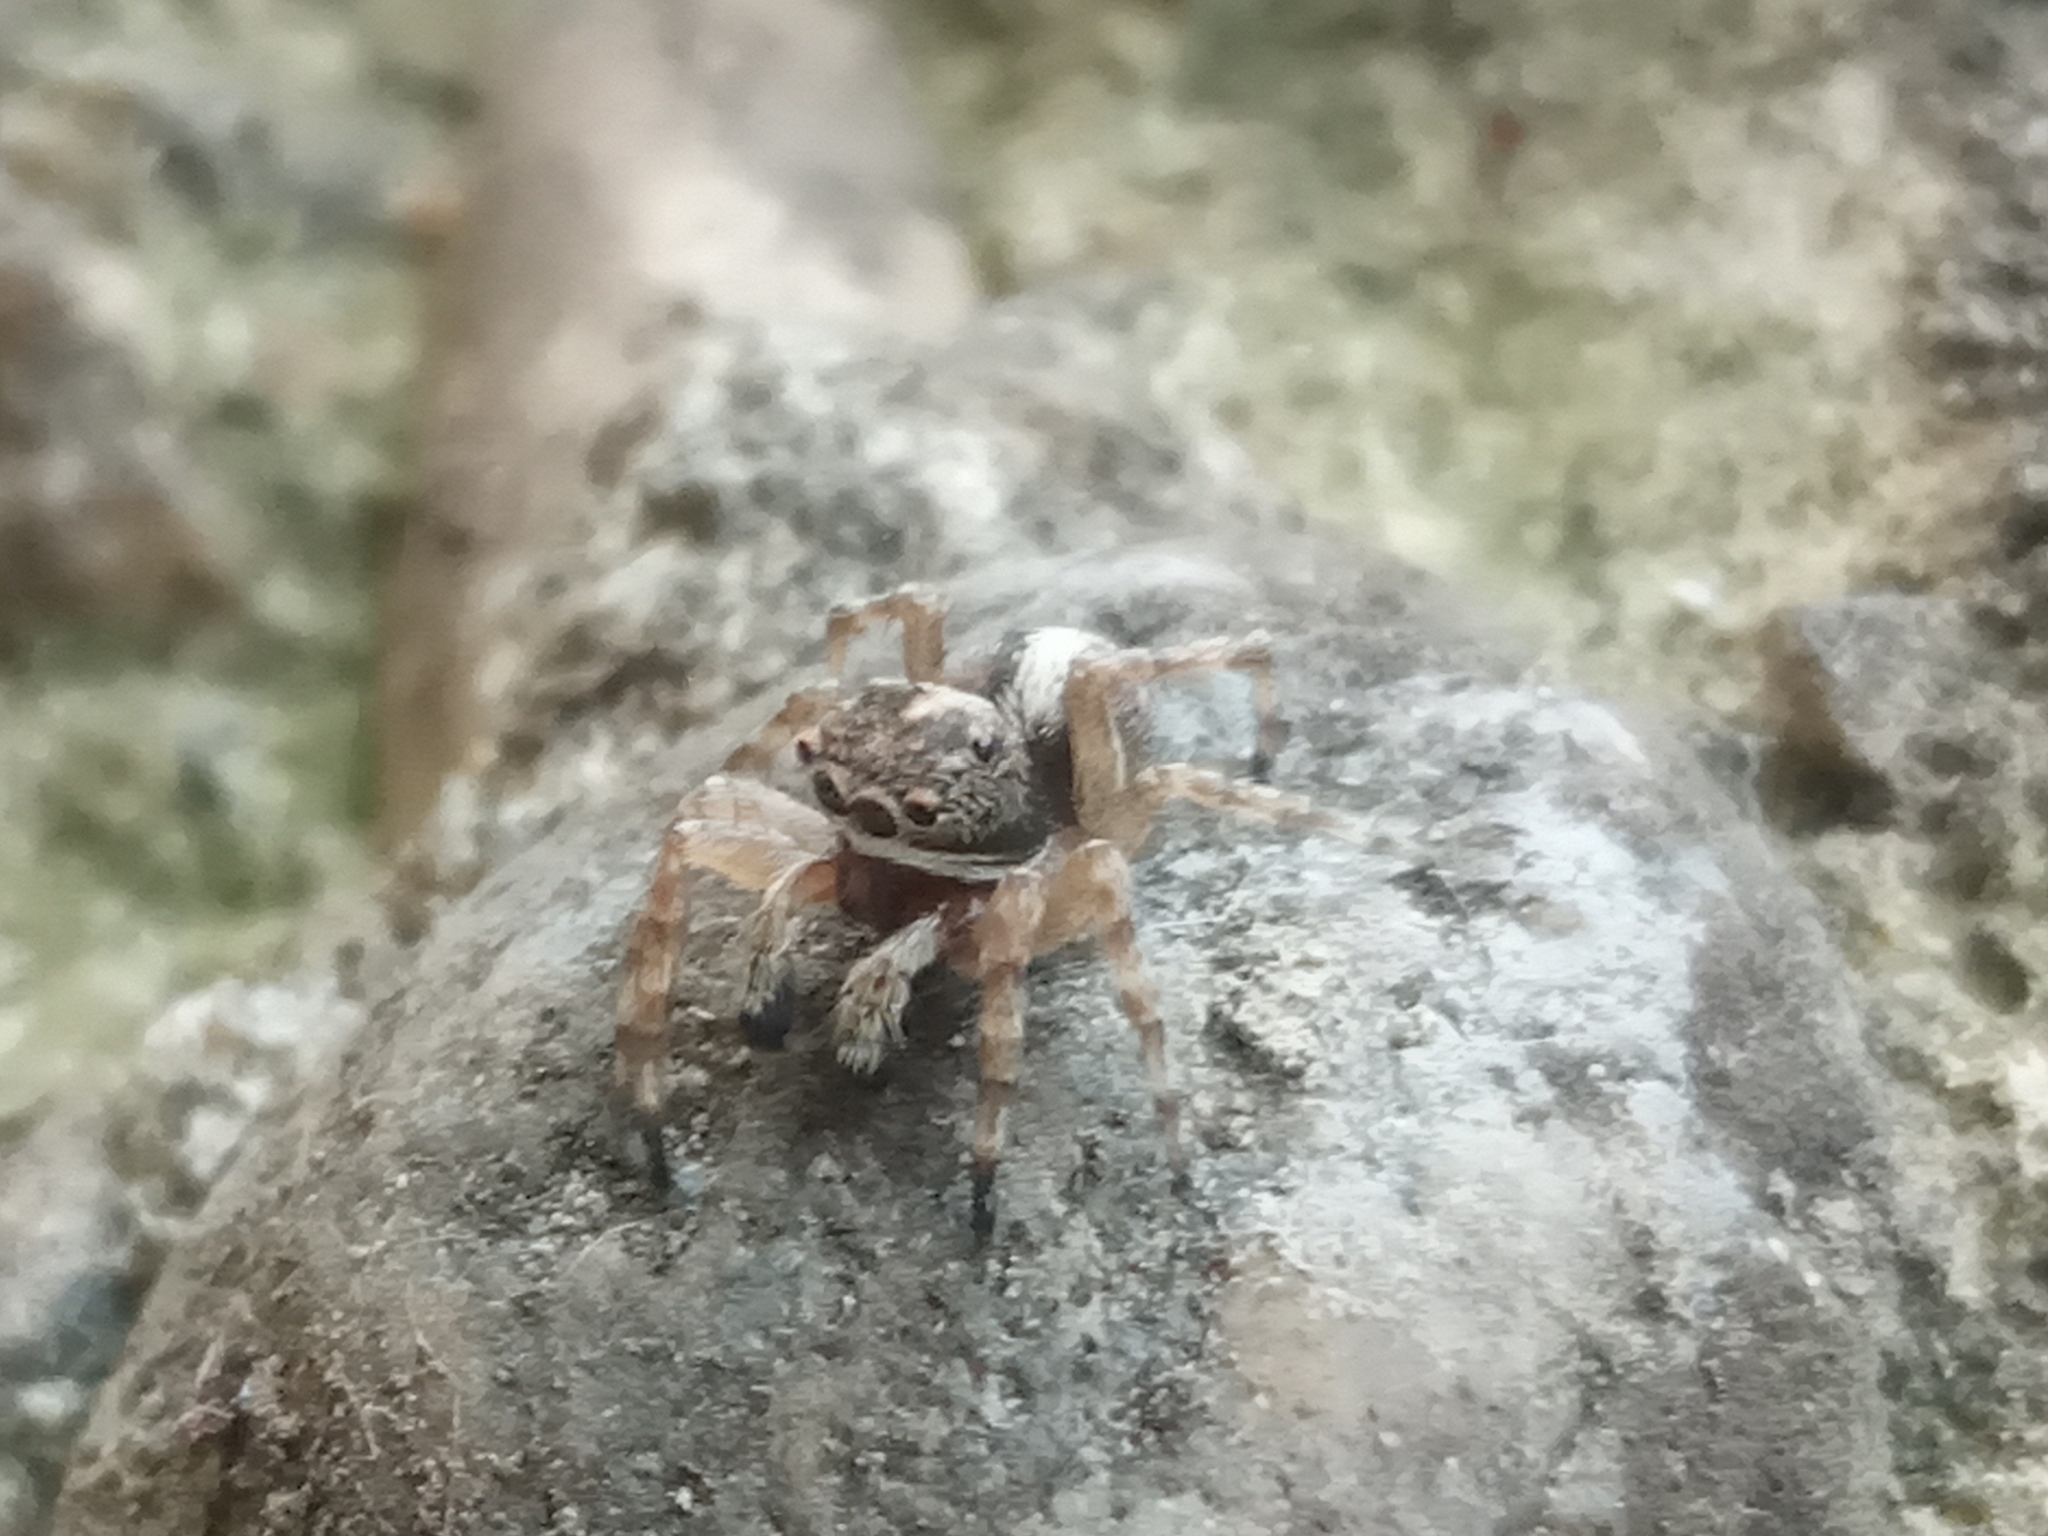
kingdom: Animalia
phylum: Arthropoda
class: Arachnida
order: Araneae
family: Salticidae
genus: Attulus
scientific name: Attulus relictarius
